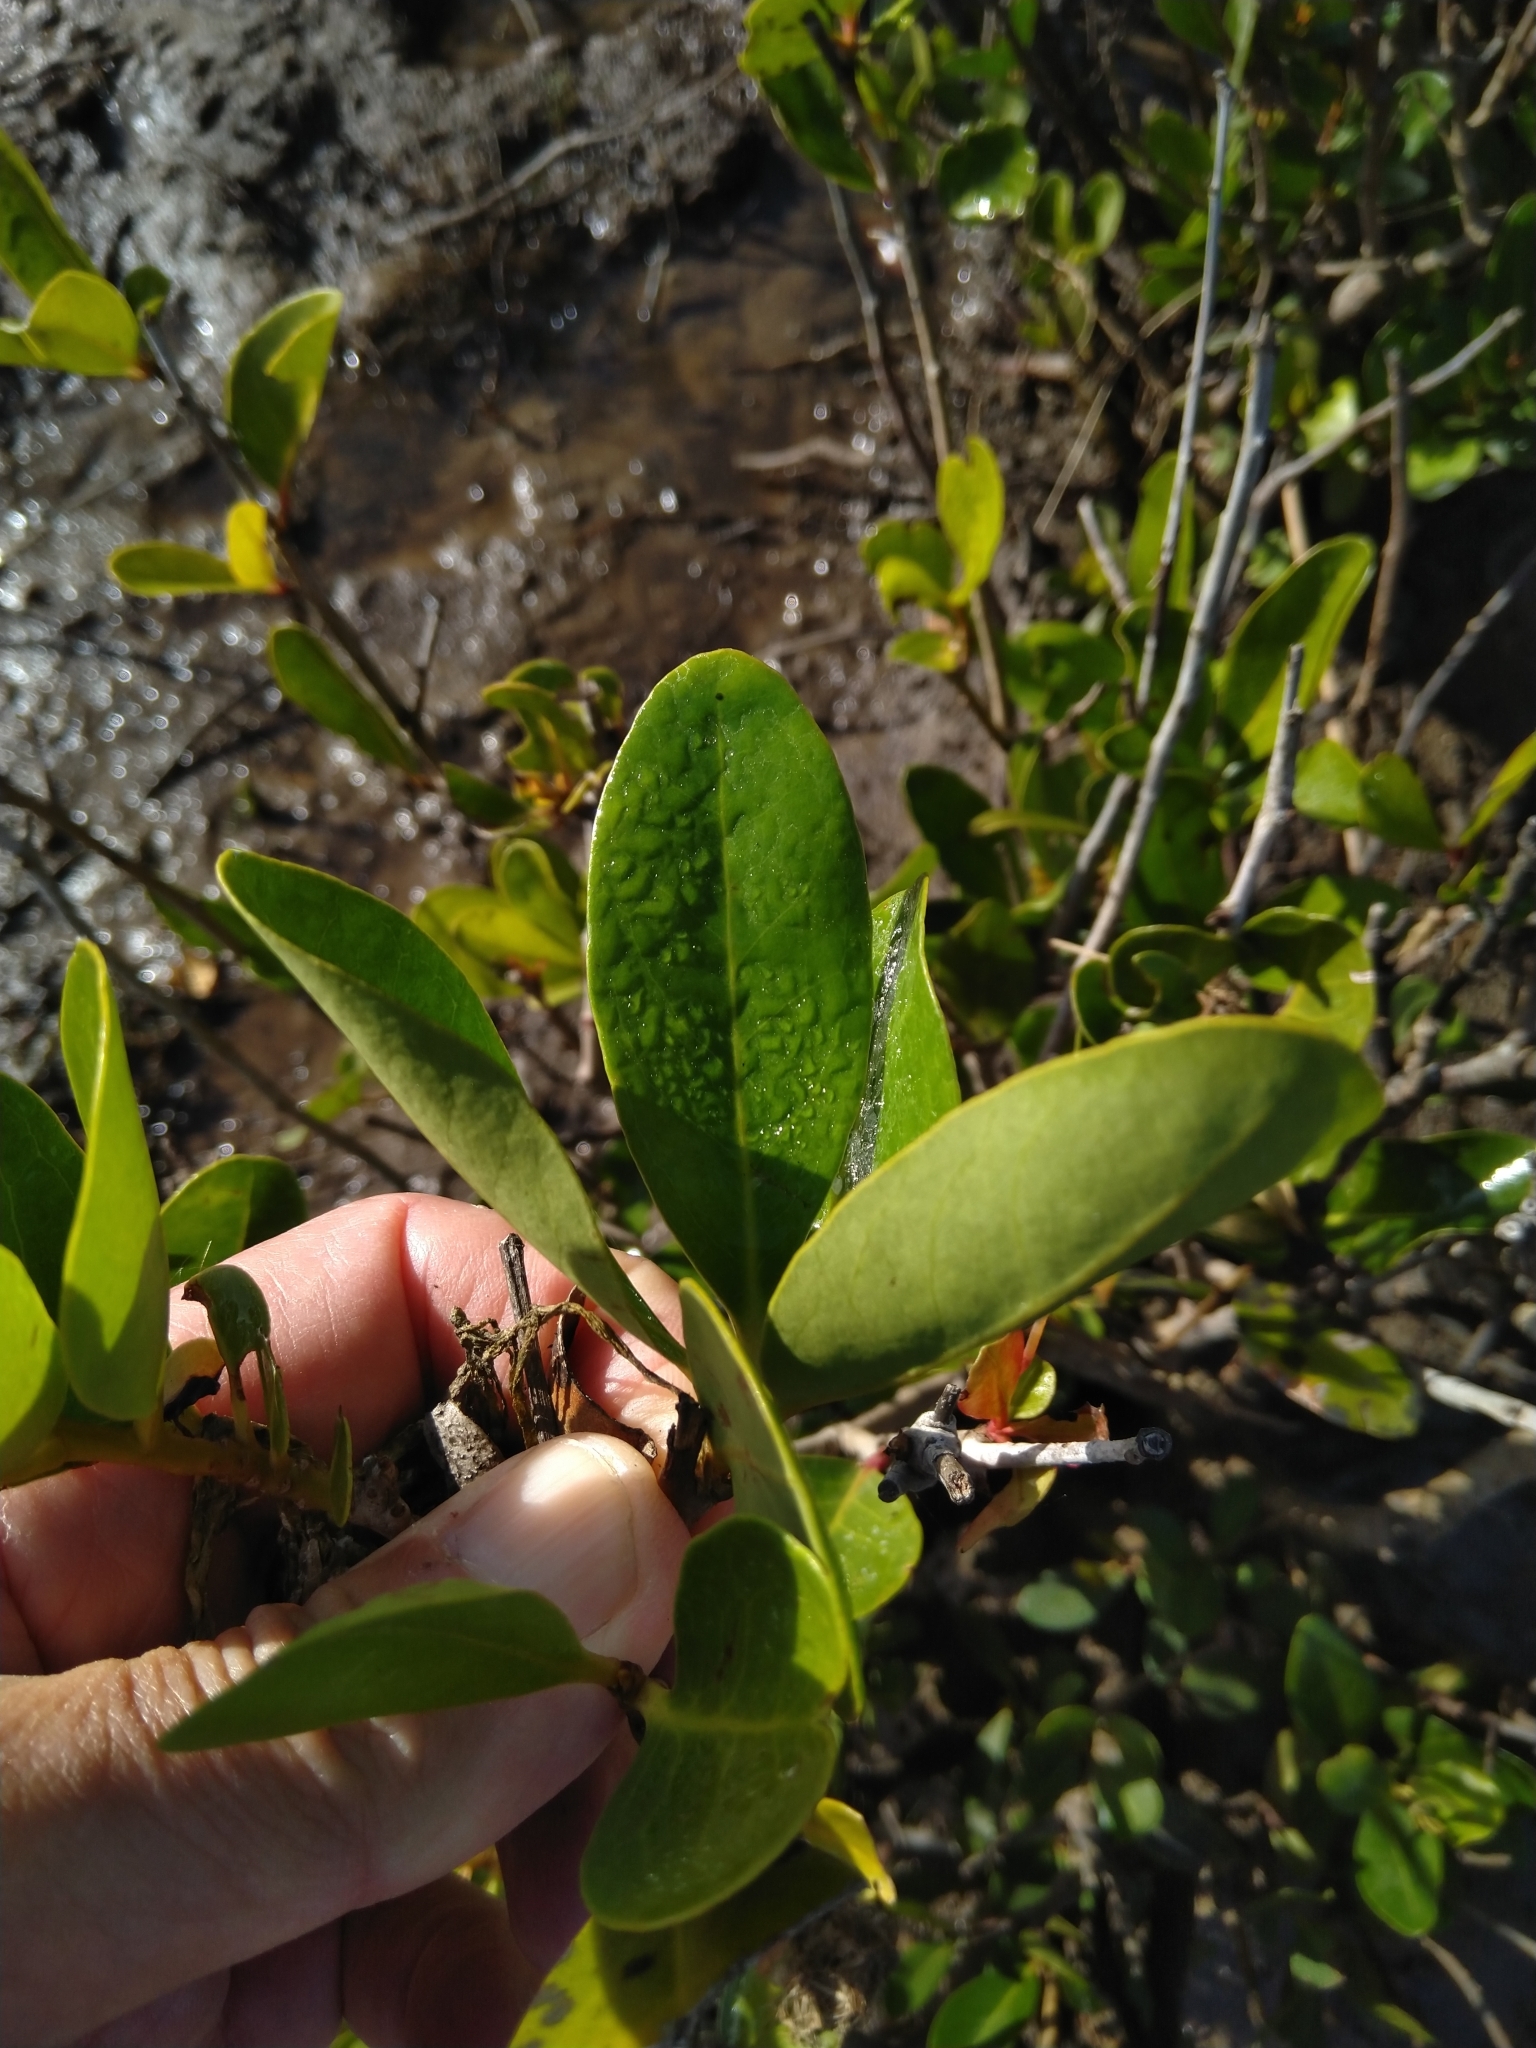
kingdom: Plantae
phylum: Tracheophyta
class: Magnoliopsida
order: Ericales
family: Primulaceae
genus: Aegiceras
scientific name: Aegiceras corniculatum
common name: River mangrove
